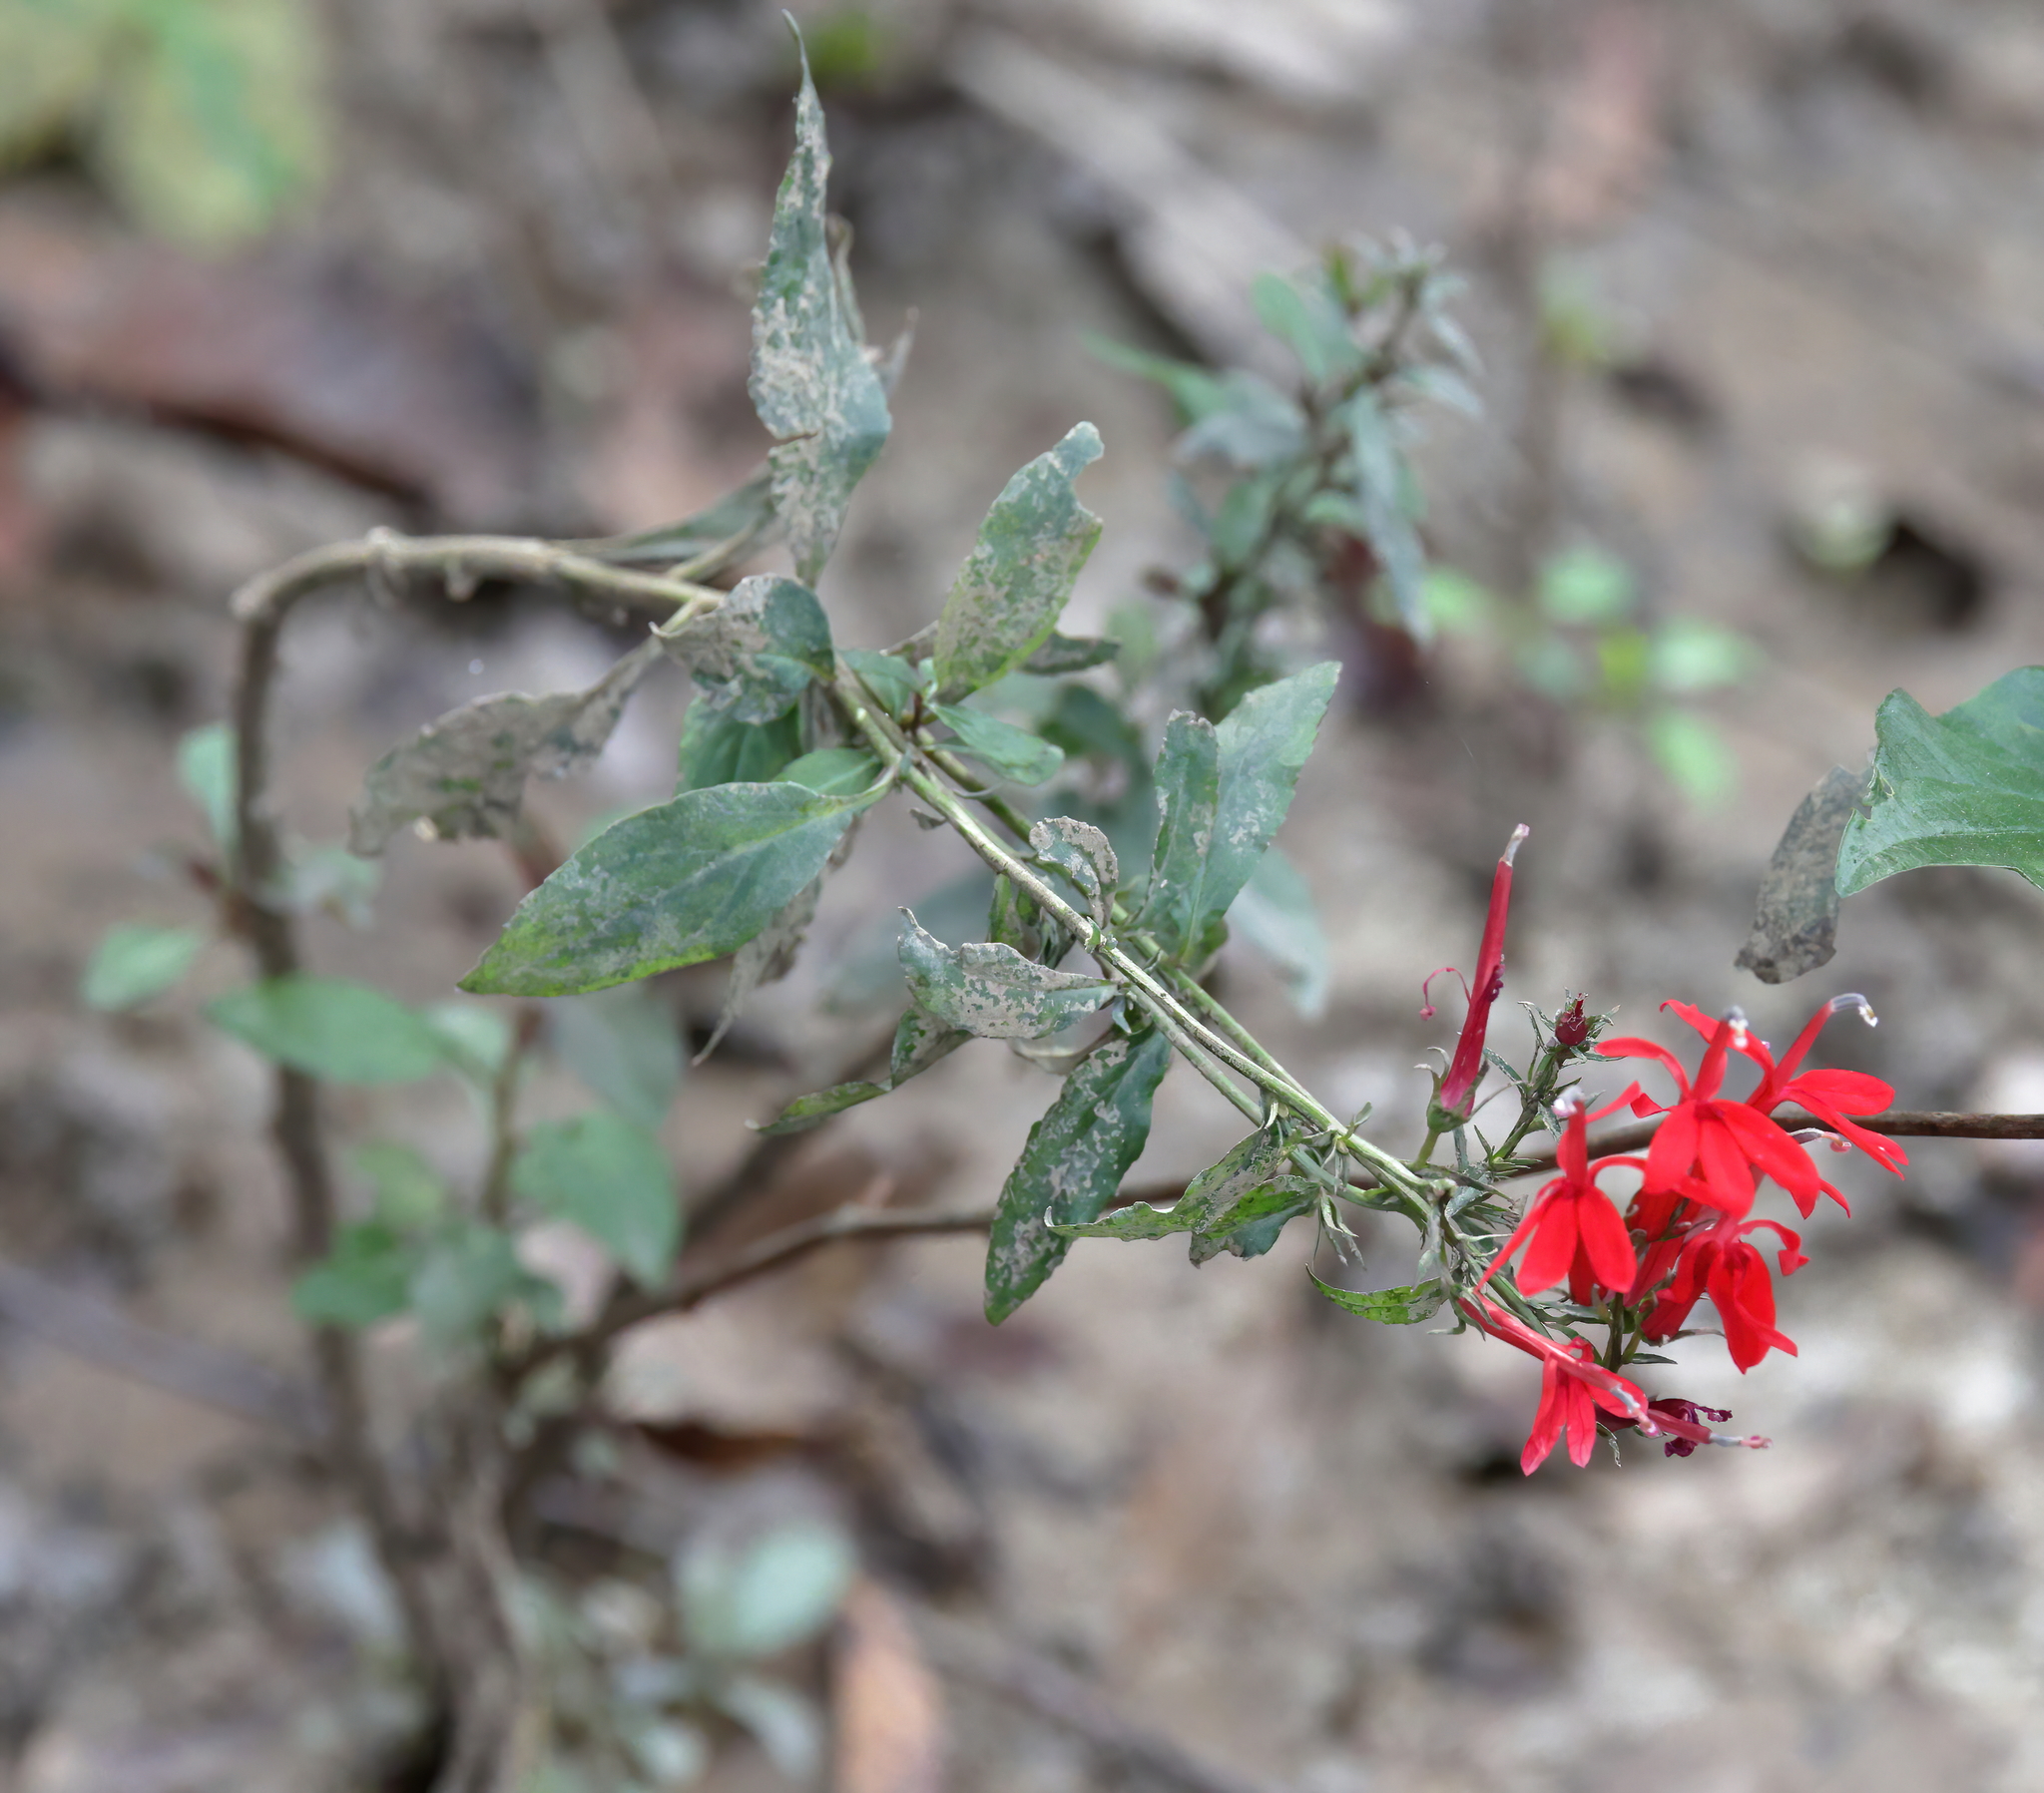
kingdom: Plantae
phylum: Tracheophyta
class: Magnoliopsida
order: Asterales
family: Campanulaceae
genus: Lobelia
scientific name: Lobelia cardinalis
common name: Cardinal flower
